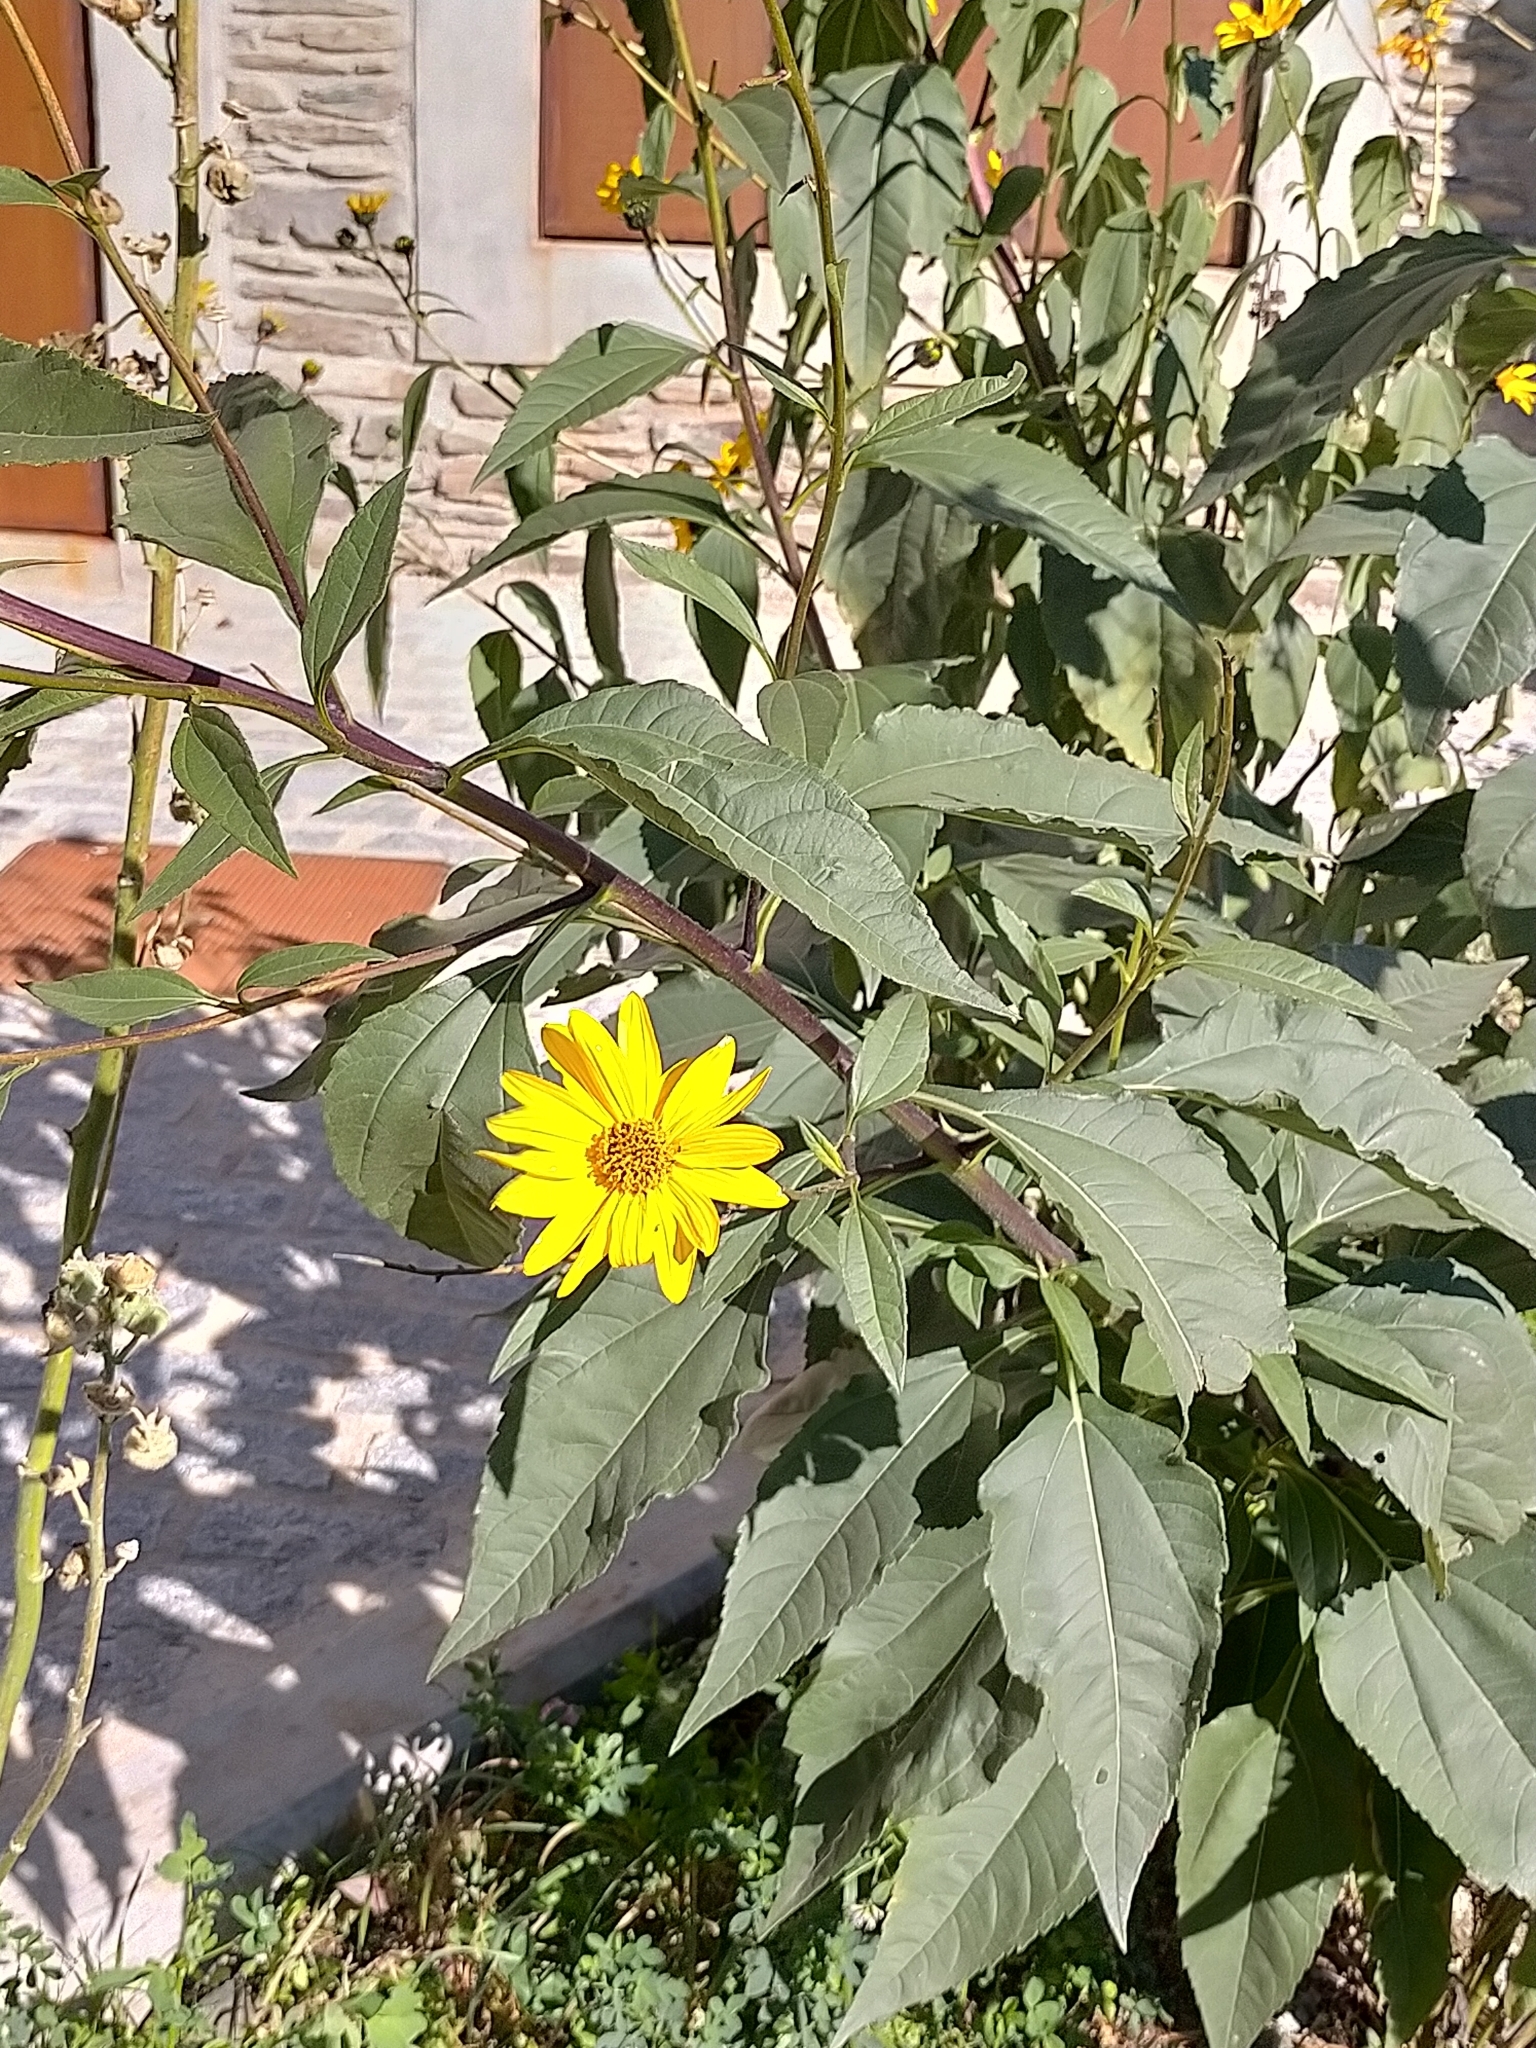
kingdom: Plantae
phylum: Tracheophyta
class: Magnoliopsida
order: Asterales
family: Asteraceae
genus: Helianthus
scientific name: Helianthus tuberosus
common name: Jerusalem artichoke
